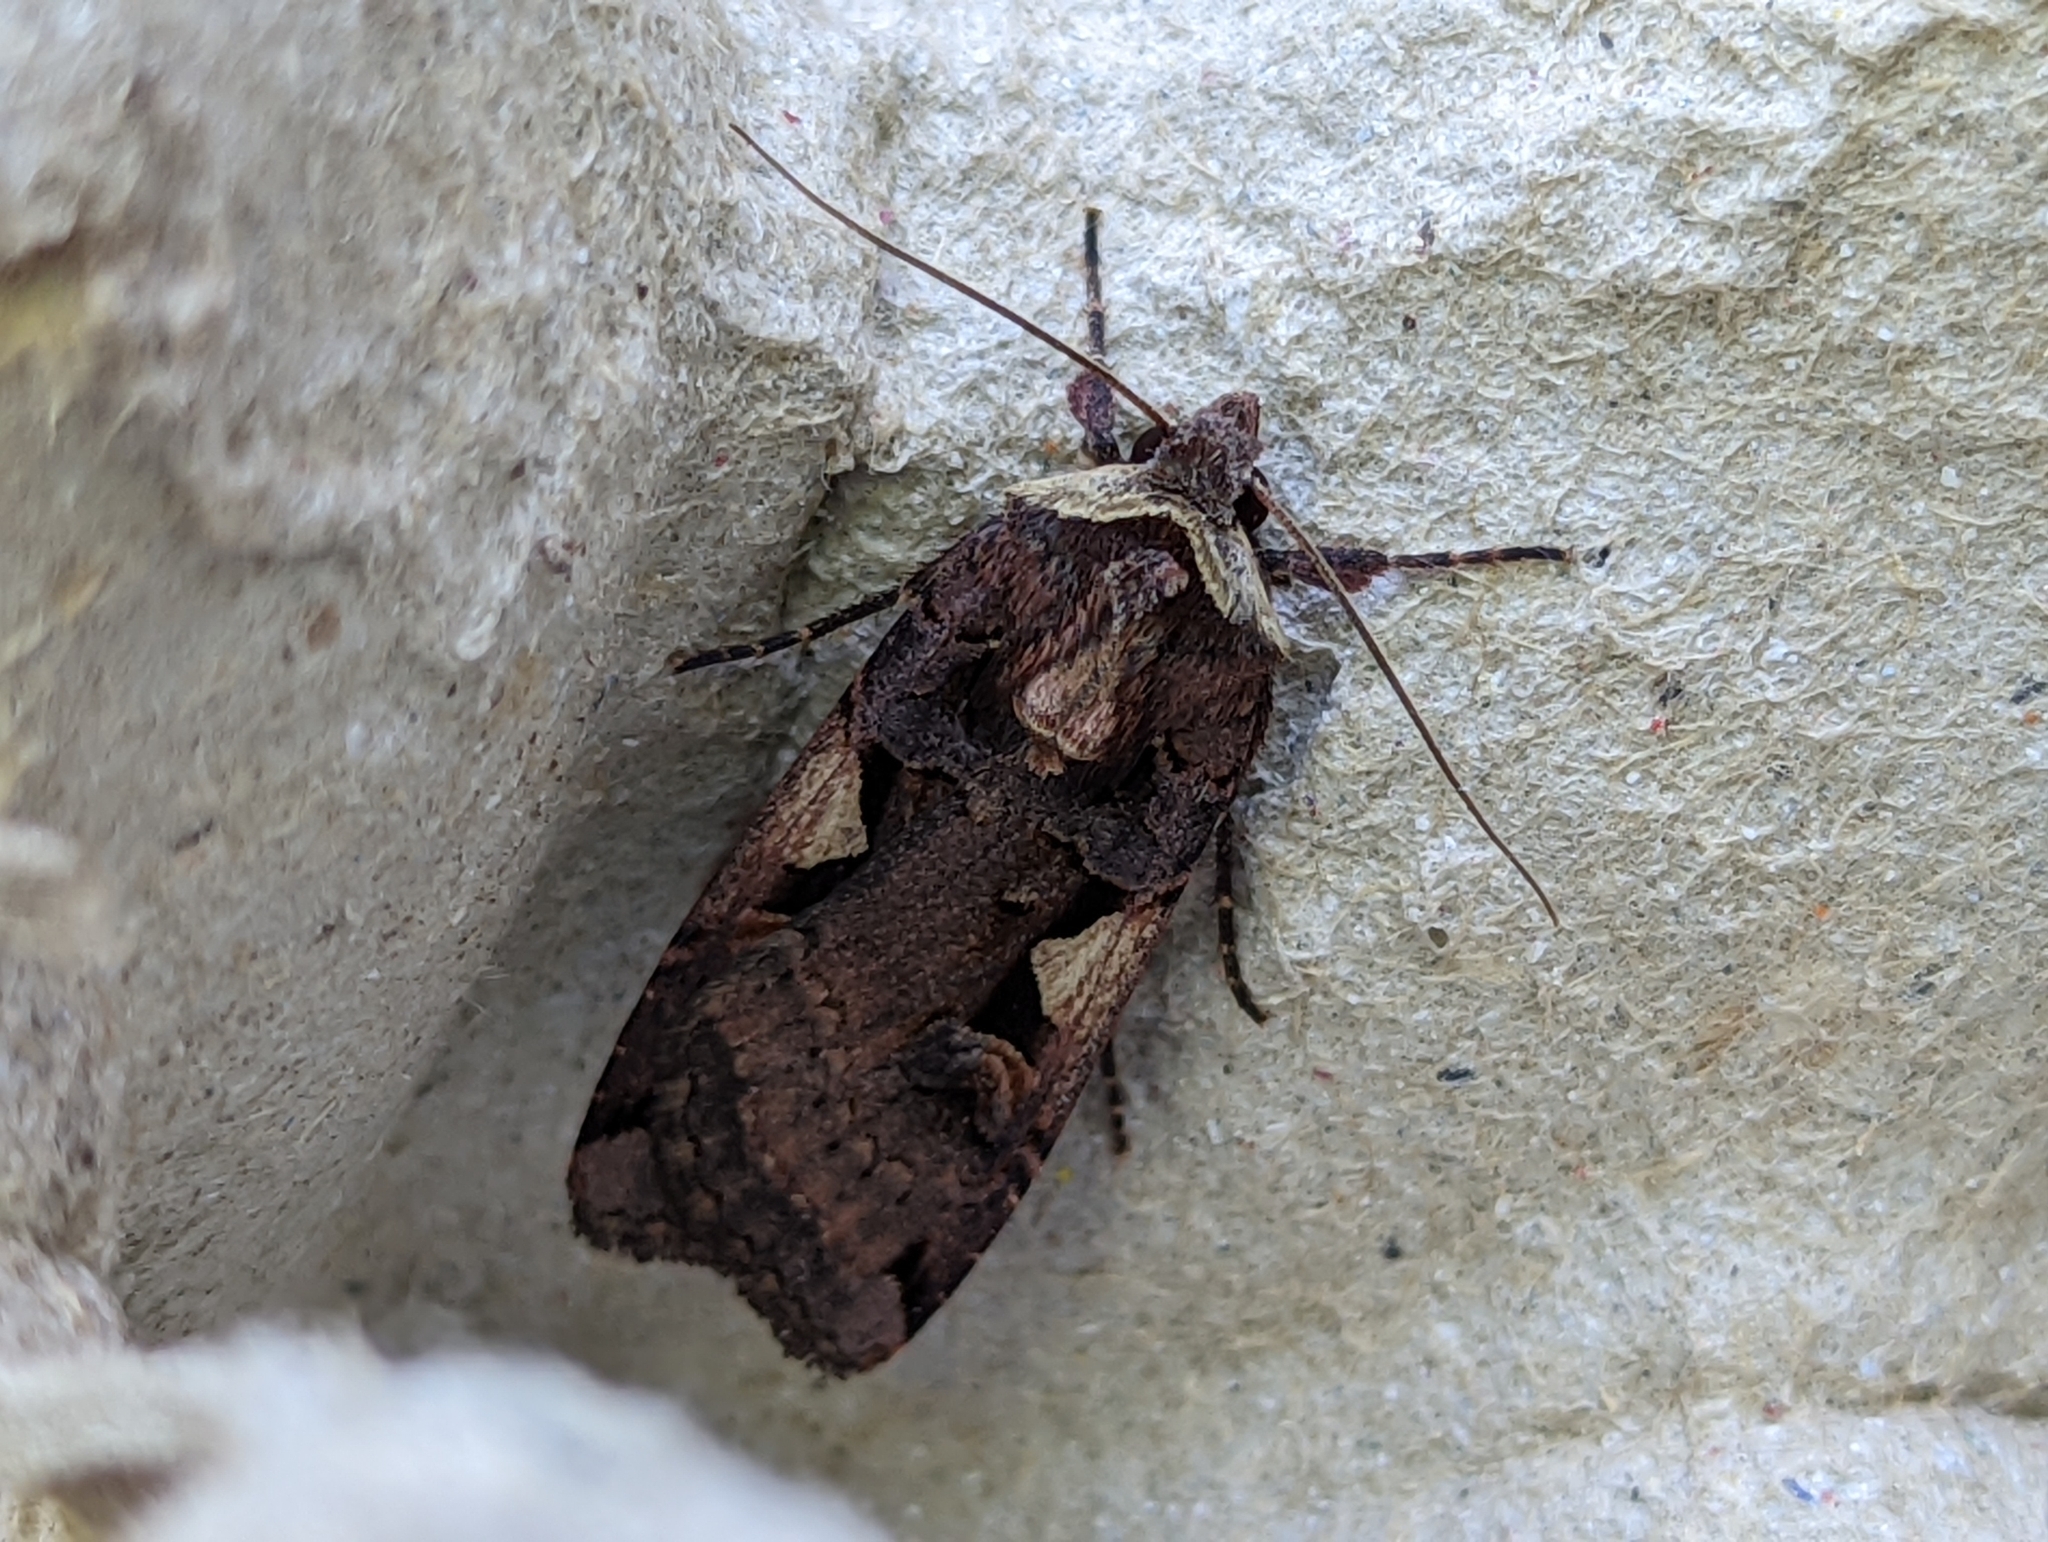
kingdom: Animalia
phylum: Arthropoda
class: Insecta
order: Lepidoptera
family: Noctuidae
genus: Xestia
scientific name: Xestia c-nigrum
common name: Setaceous hebrew character
